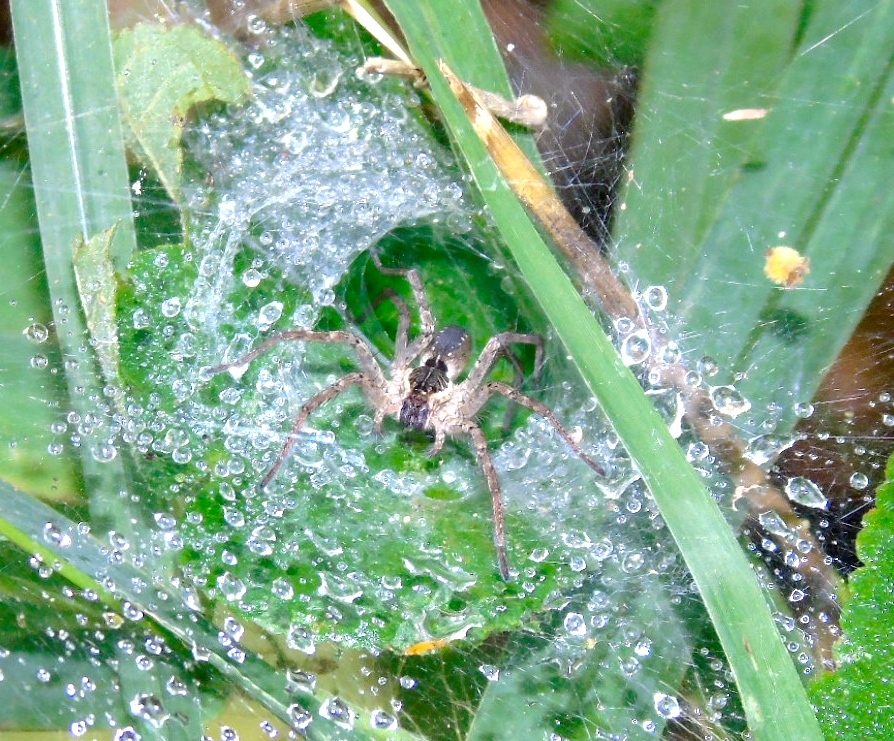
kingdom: Animalia
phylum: Arthropoda
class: Arachnida
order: Araneae
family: Lycosidae
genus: Sosippus
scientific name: Sosippus
